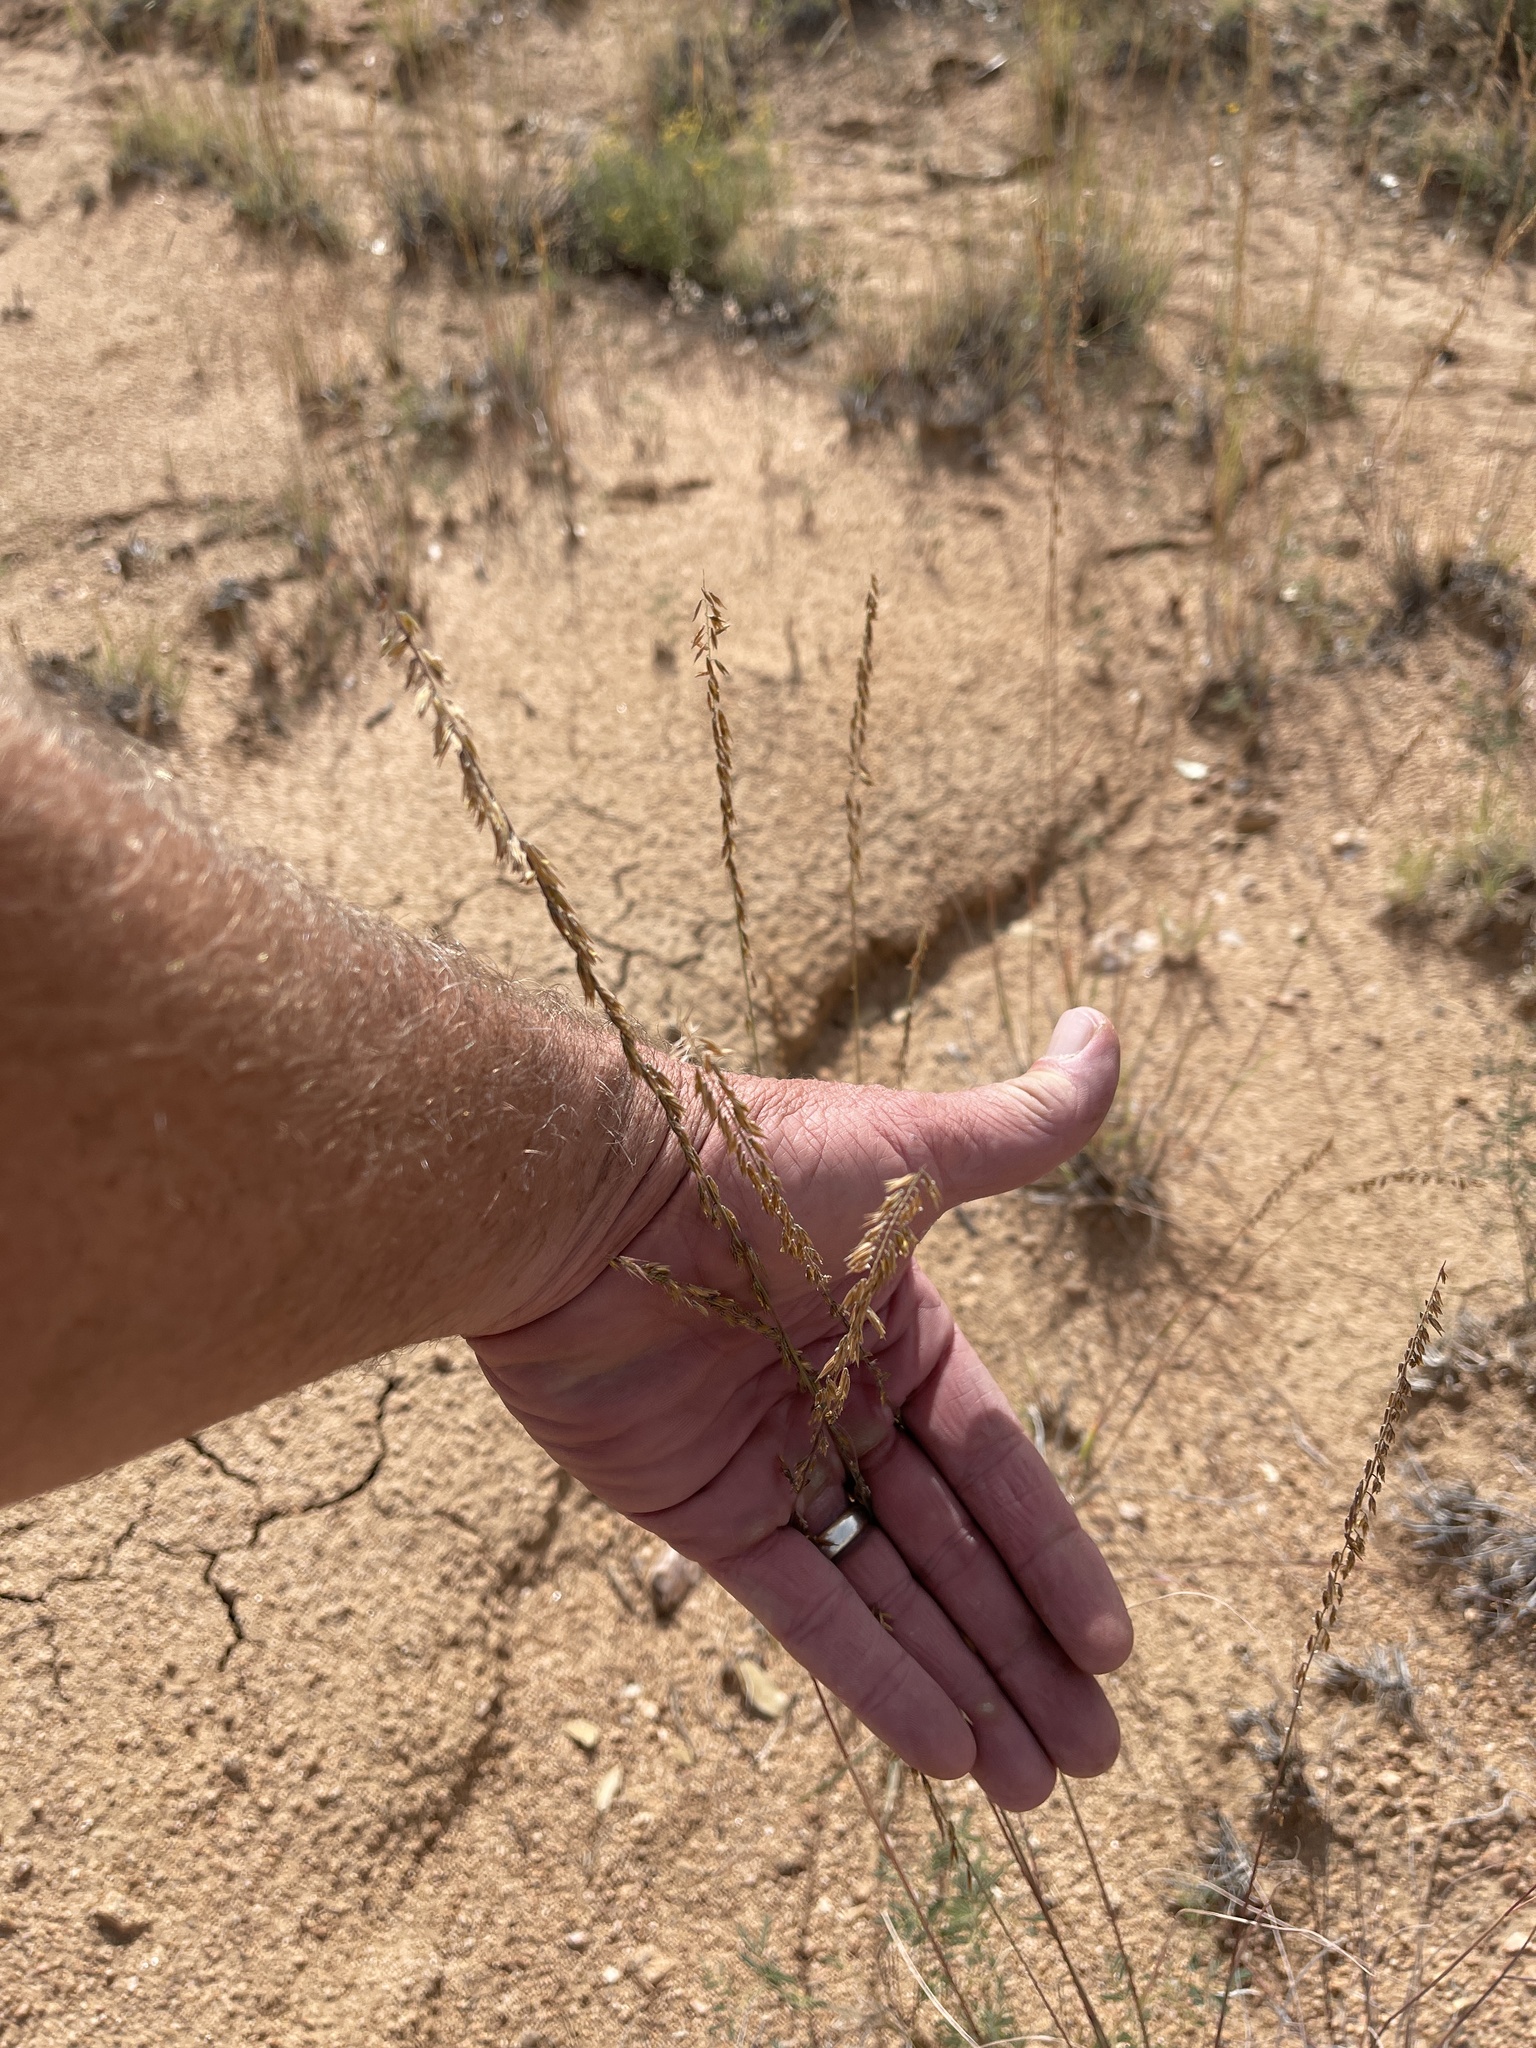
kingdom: Plantae
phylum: Tracheophyta
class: Liliopsida
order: Poales
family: Poaceae
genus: Bouteloua
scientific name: Bouteloua curtipendula
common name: Side-oats grama
